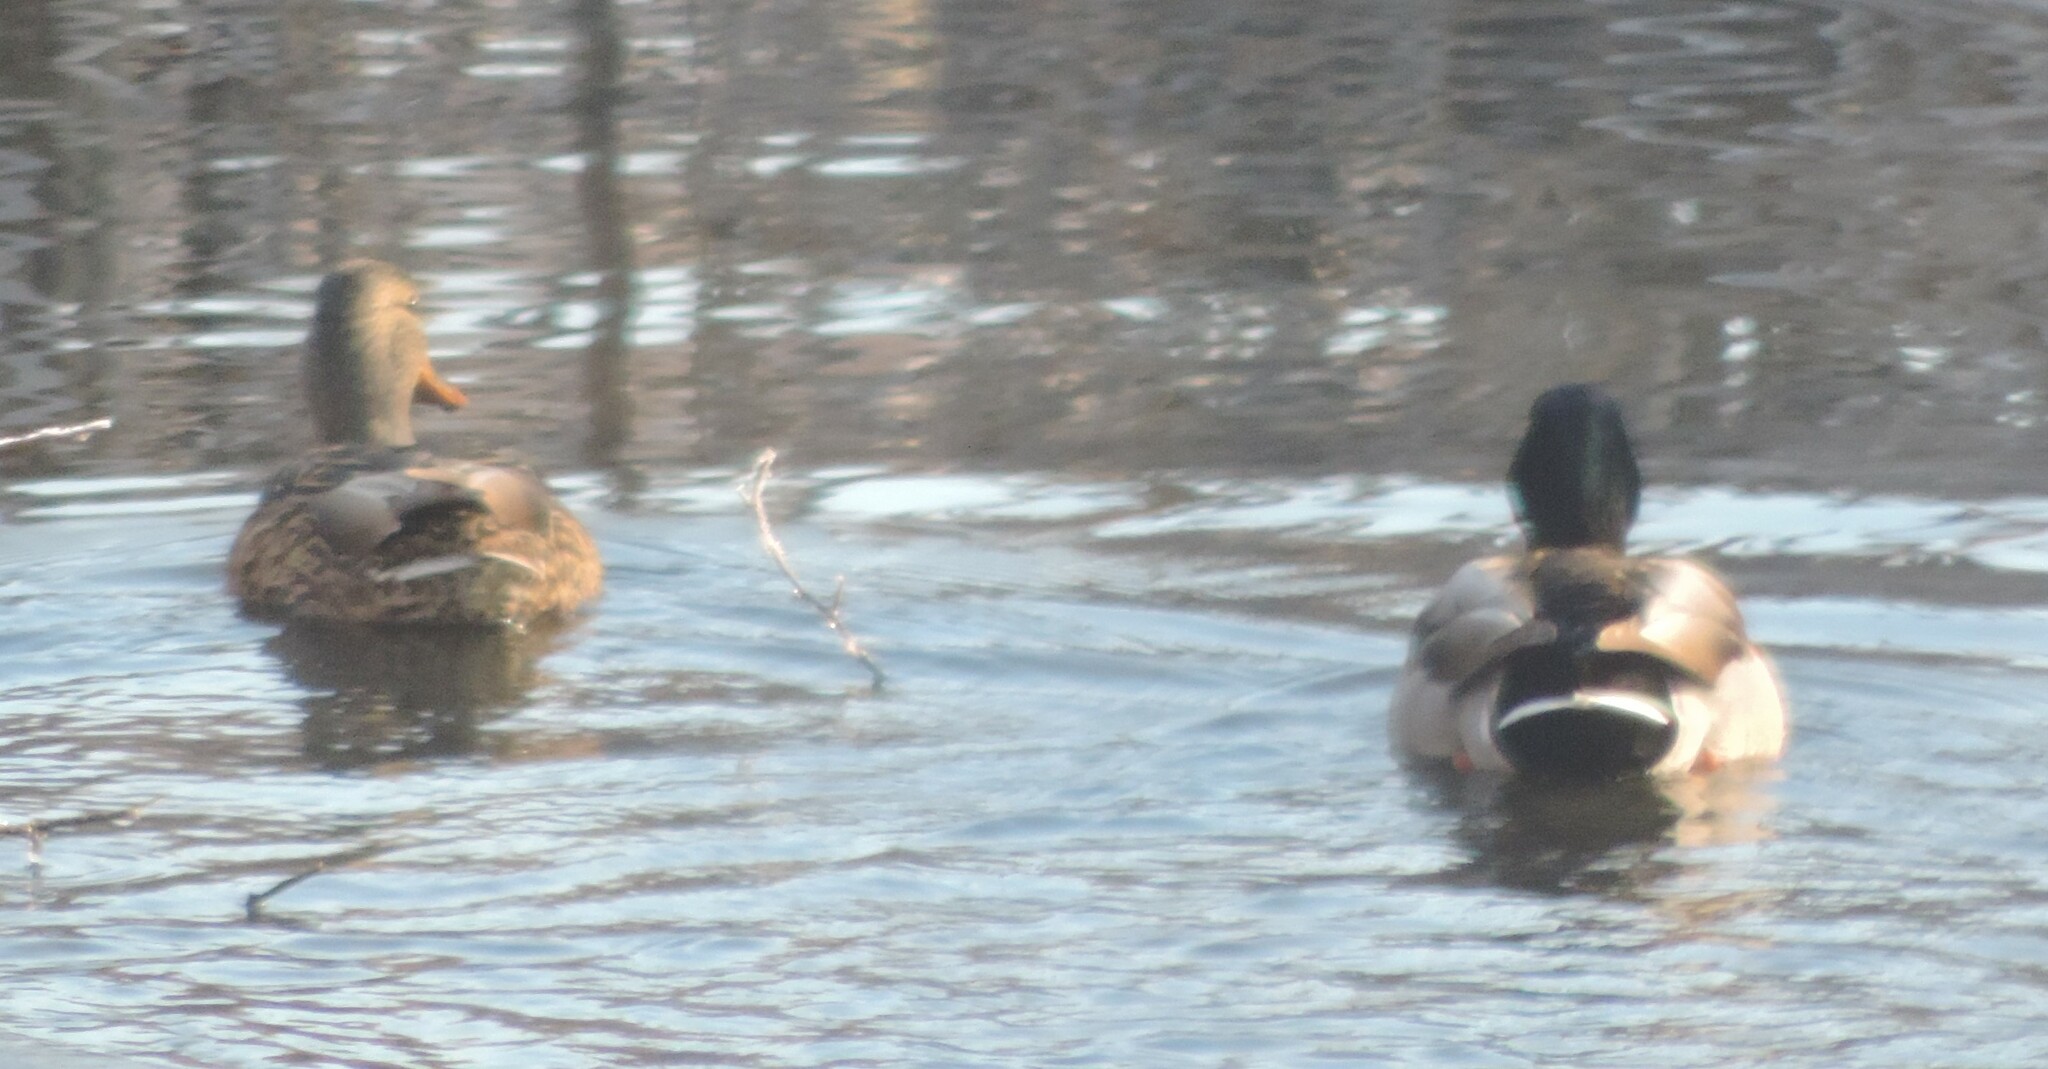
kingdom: Animalia
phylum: Chordata
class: Aves
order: Anseriformes
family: Anatidae
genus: Anas
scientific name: Anas platyrhynchos
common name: Mallard
